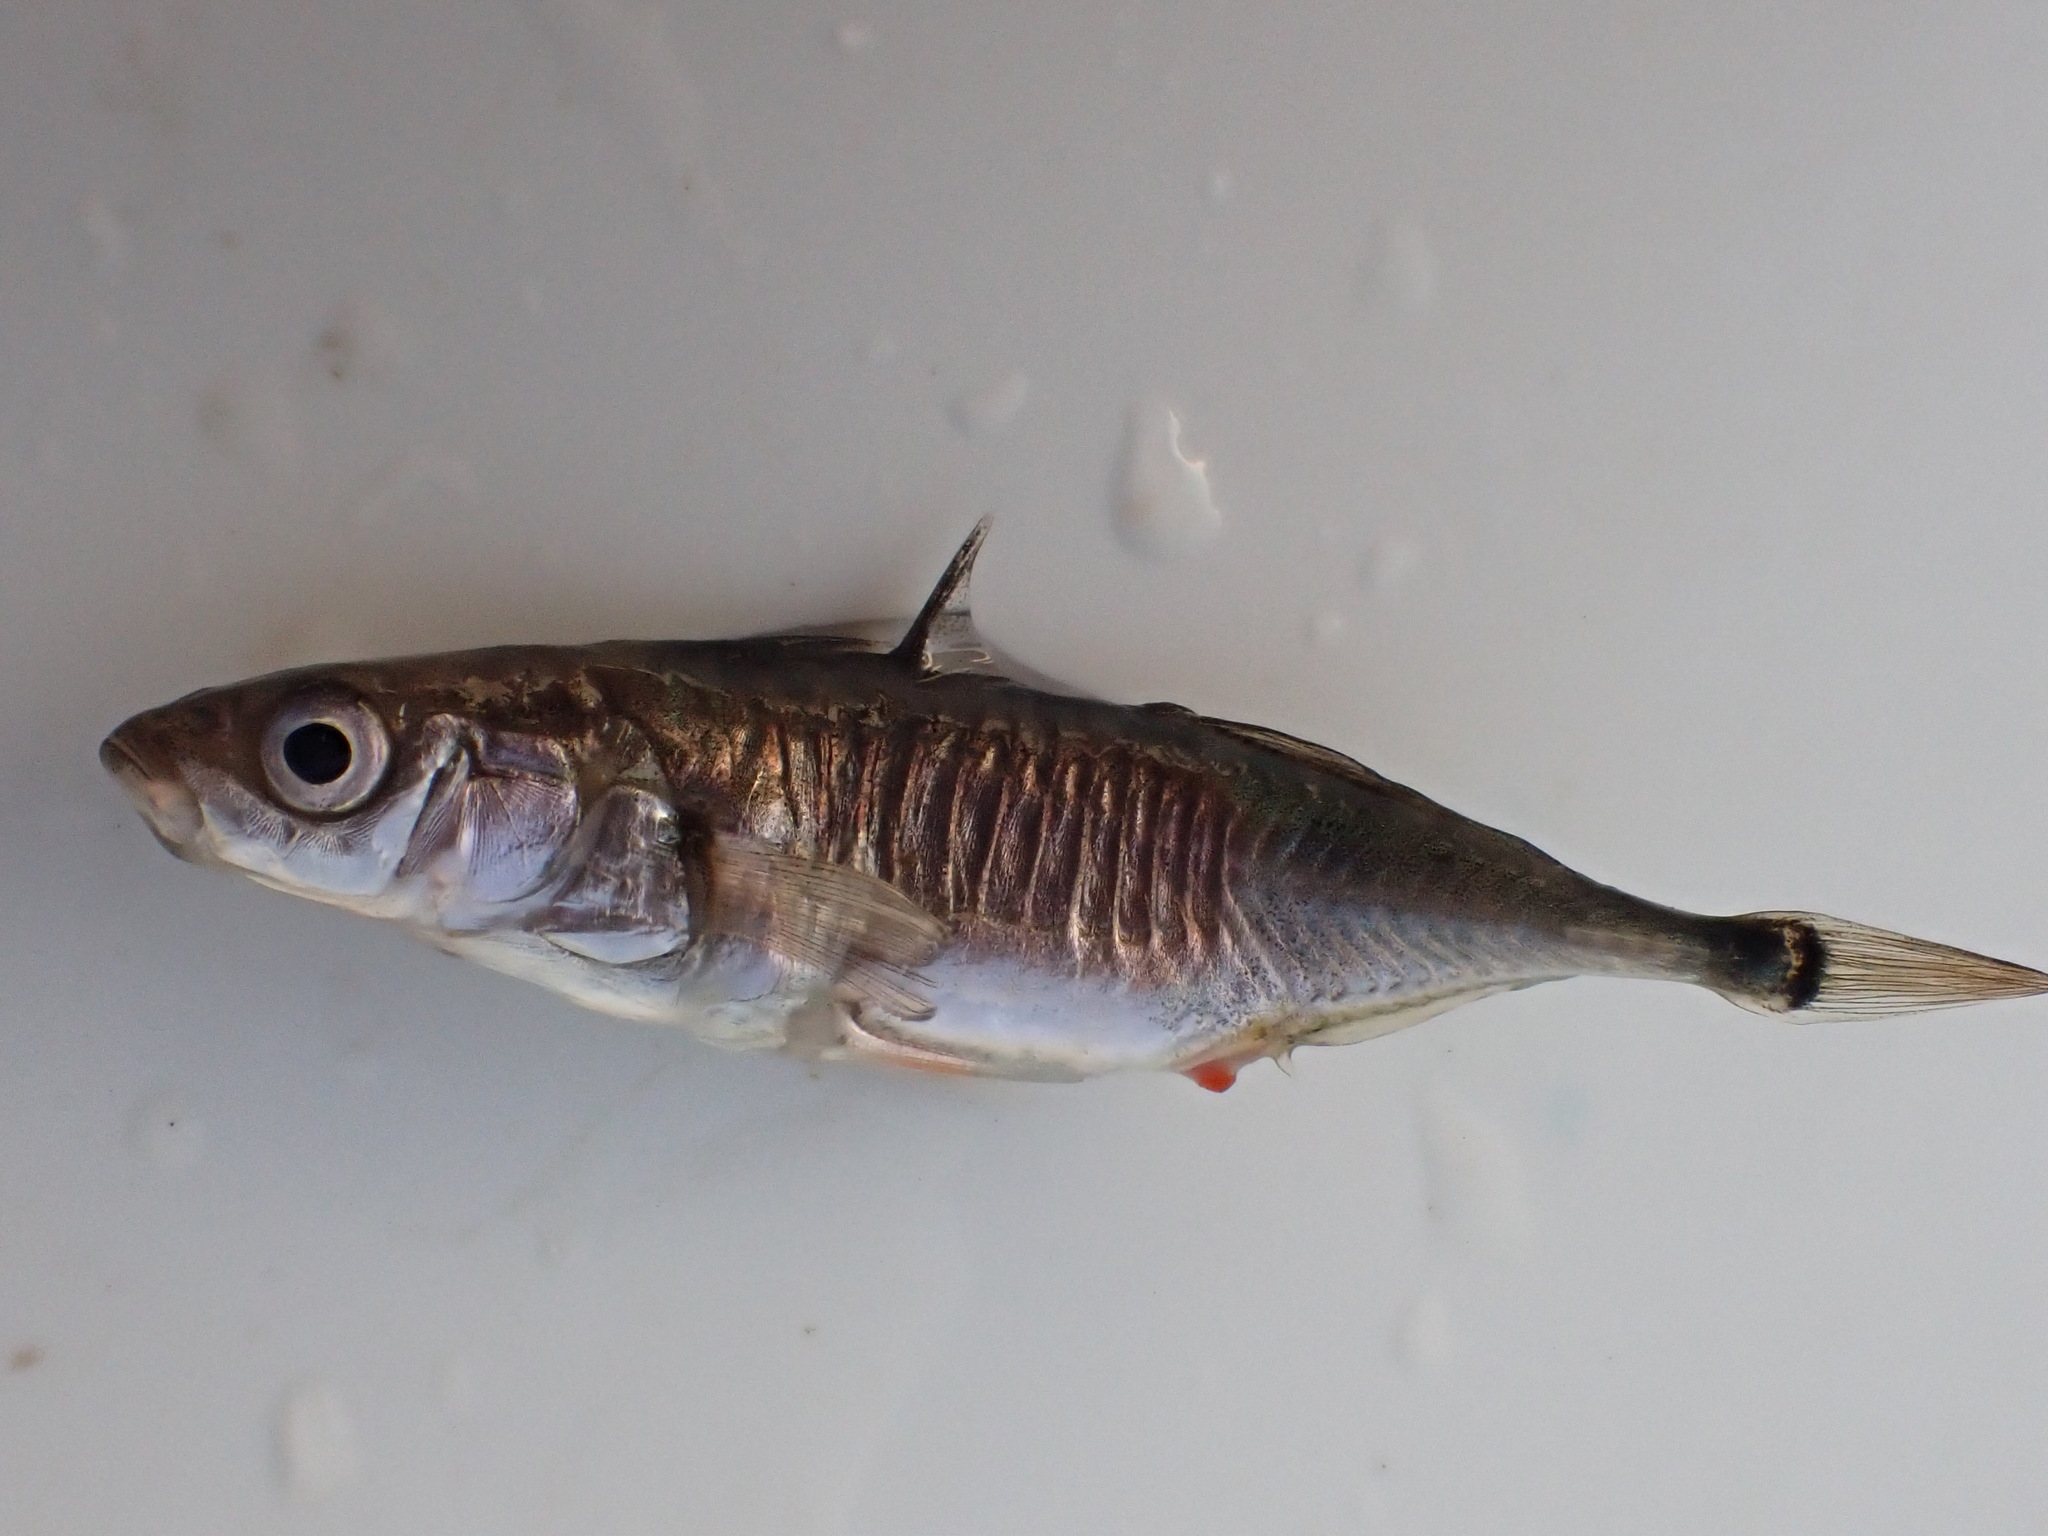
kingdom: Animalia
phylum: Chordata
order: Gasterosteiformes
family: Gasterosteidae
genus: Gasterosteus
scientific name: Gasterosteus aculeatus
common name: Three-spined stickleback
